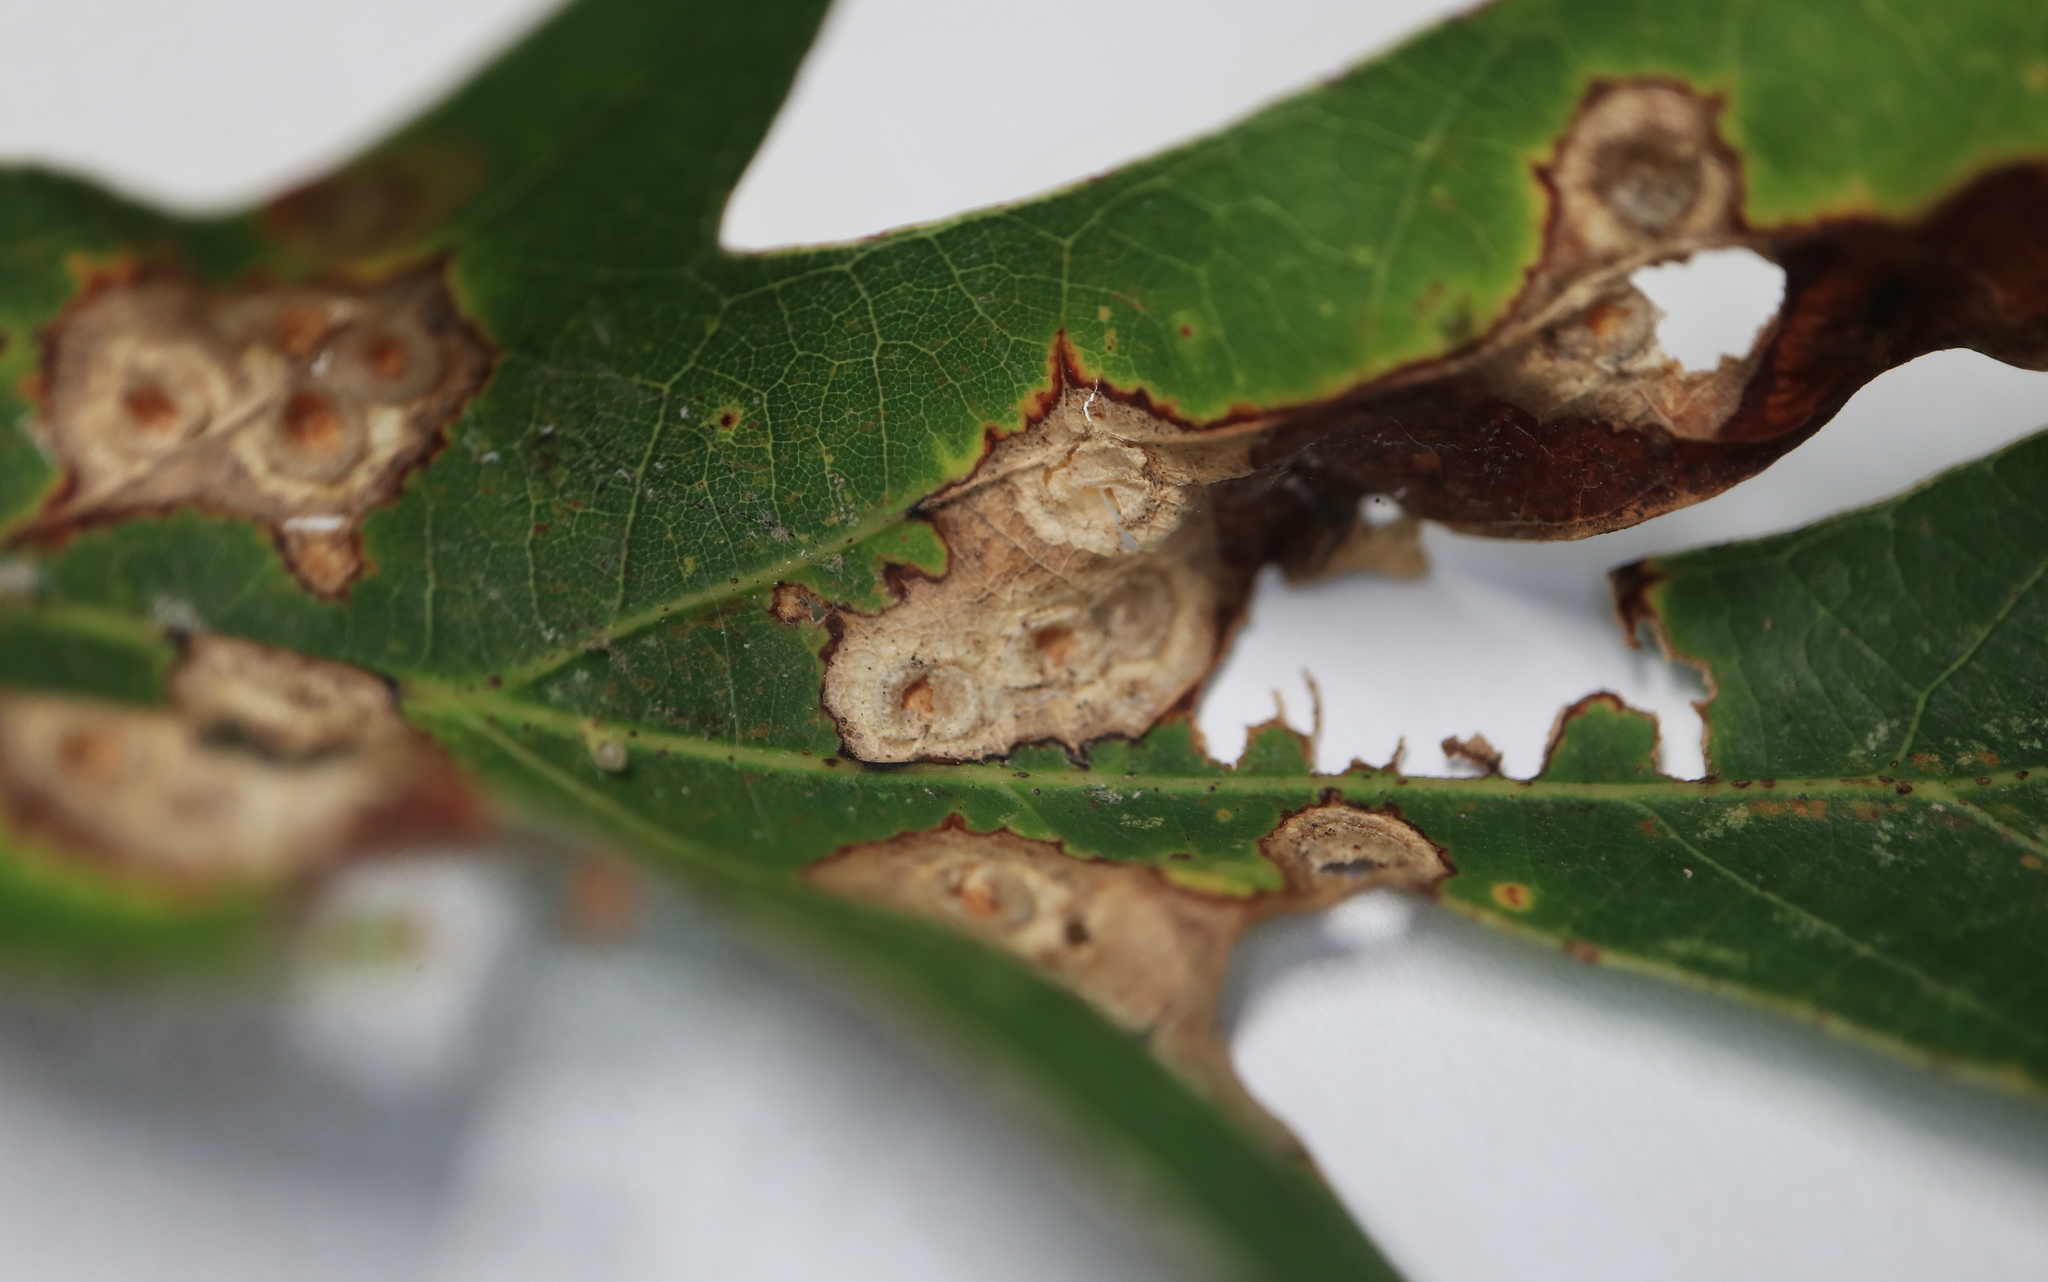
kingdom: Animalia
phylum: Arthropoda
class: Insecta
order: Hymenoptera
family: Cynipidae
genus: Callirhytis
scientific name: Callirhytis
